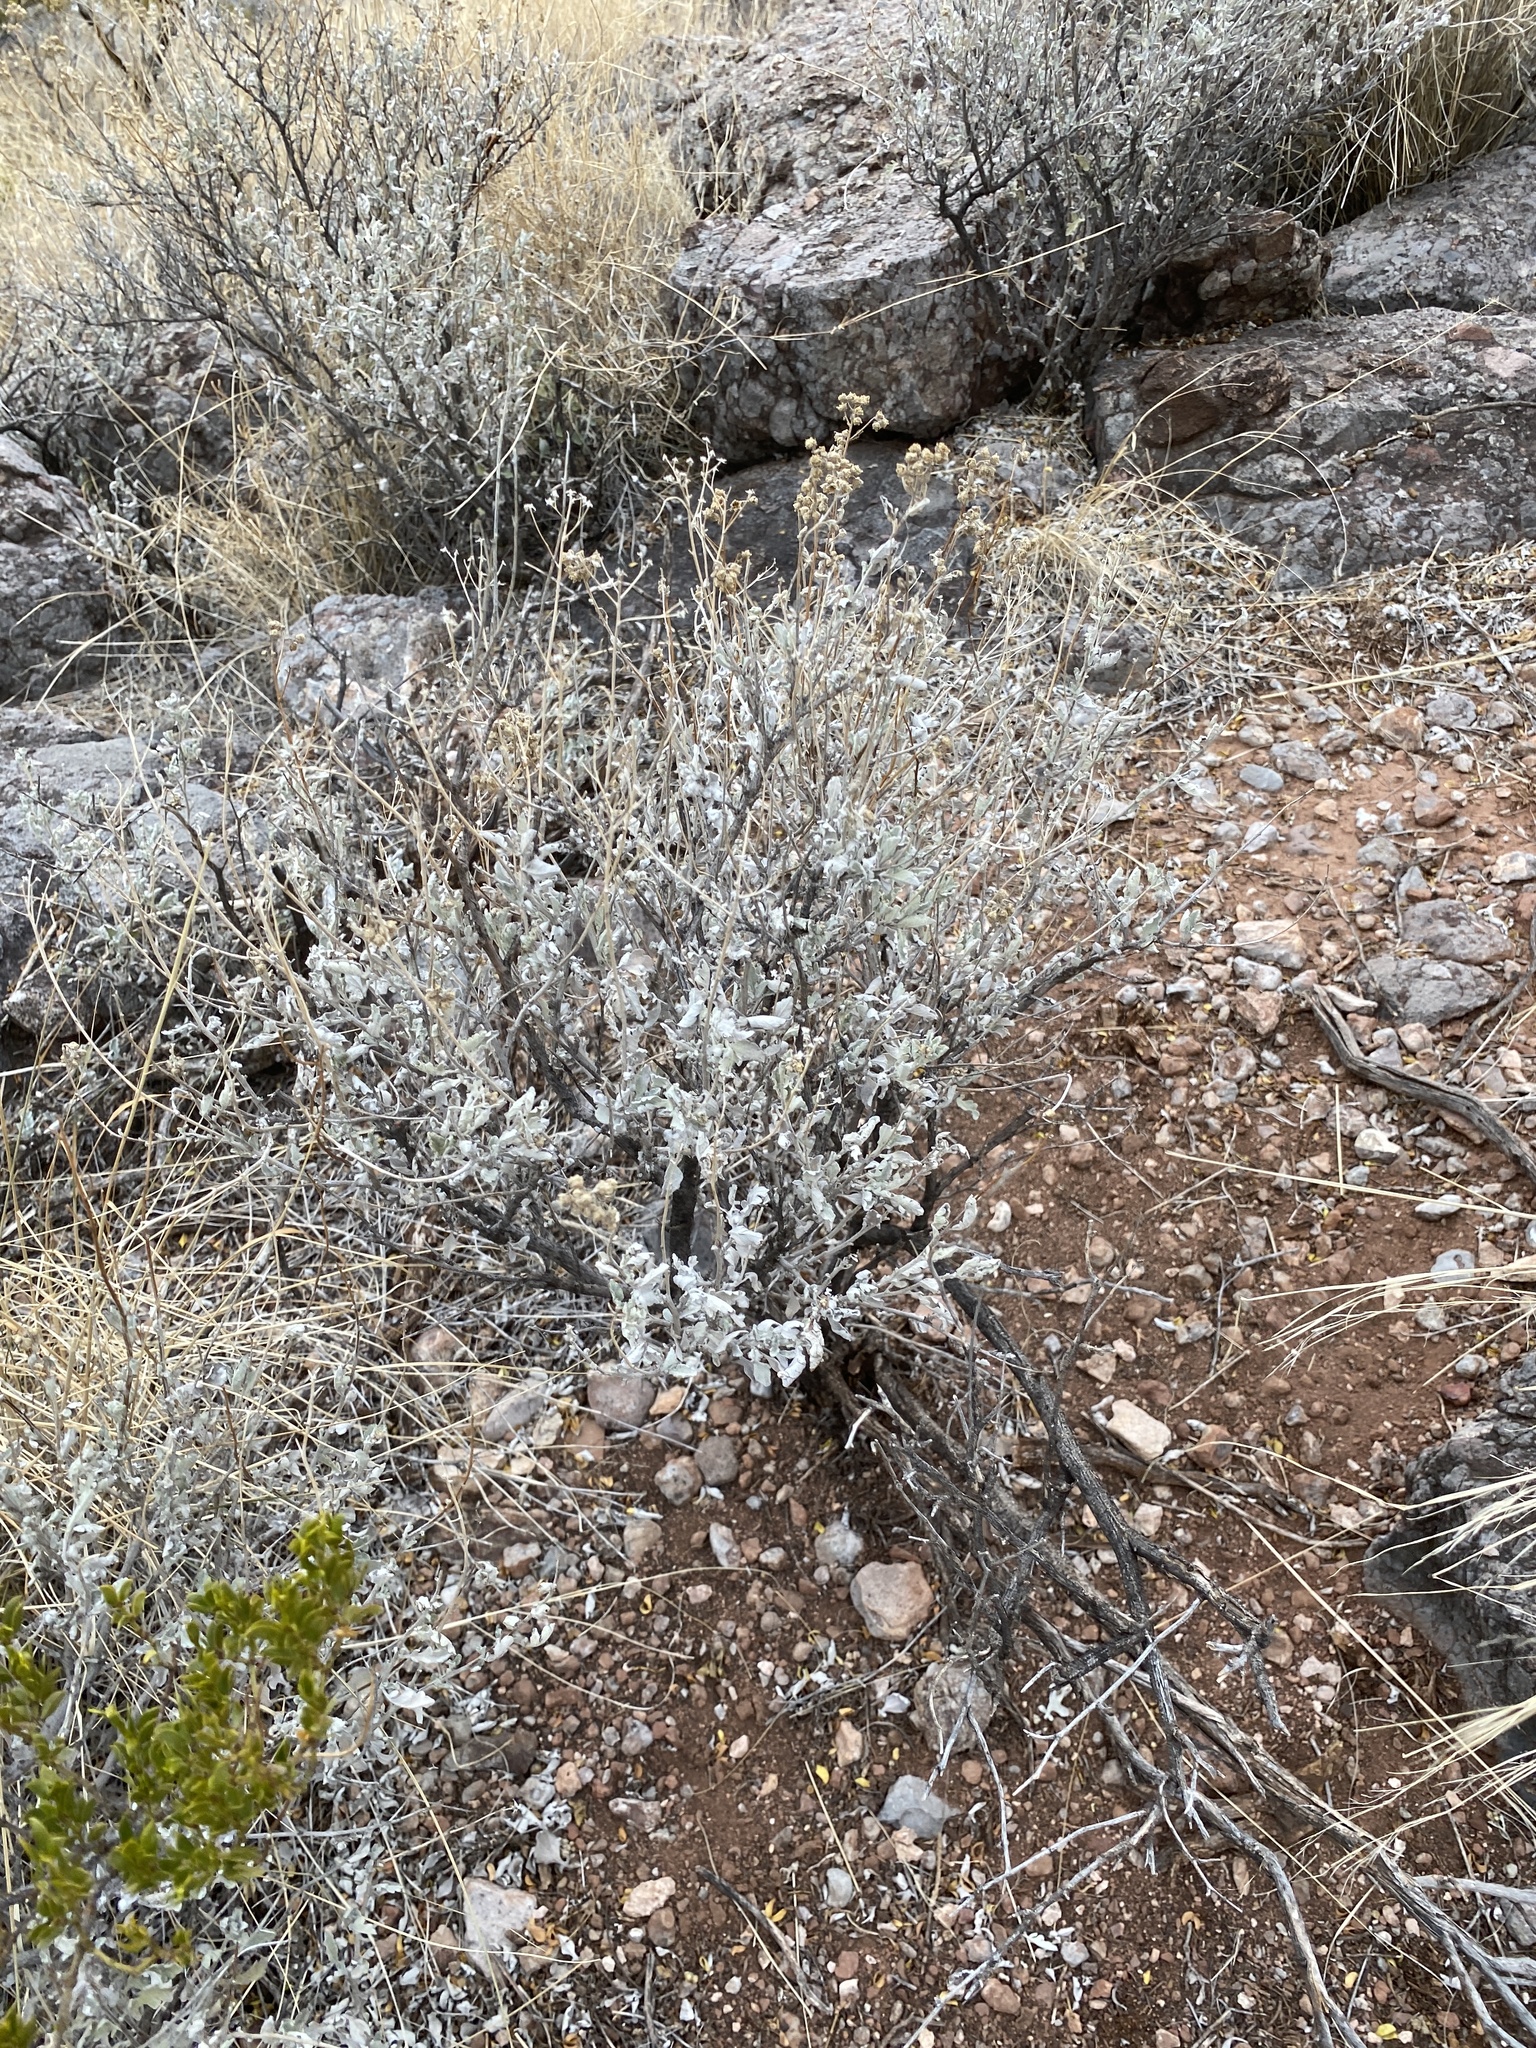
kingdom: Plantae
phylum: Tracheophyta
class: Magnoliopsida
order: Asterales
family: Asteraceae
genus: Parthenium
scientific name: Parthenium incanum
